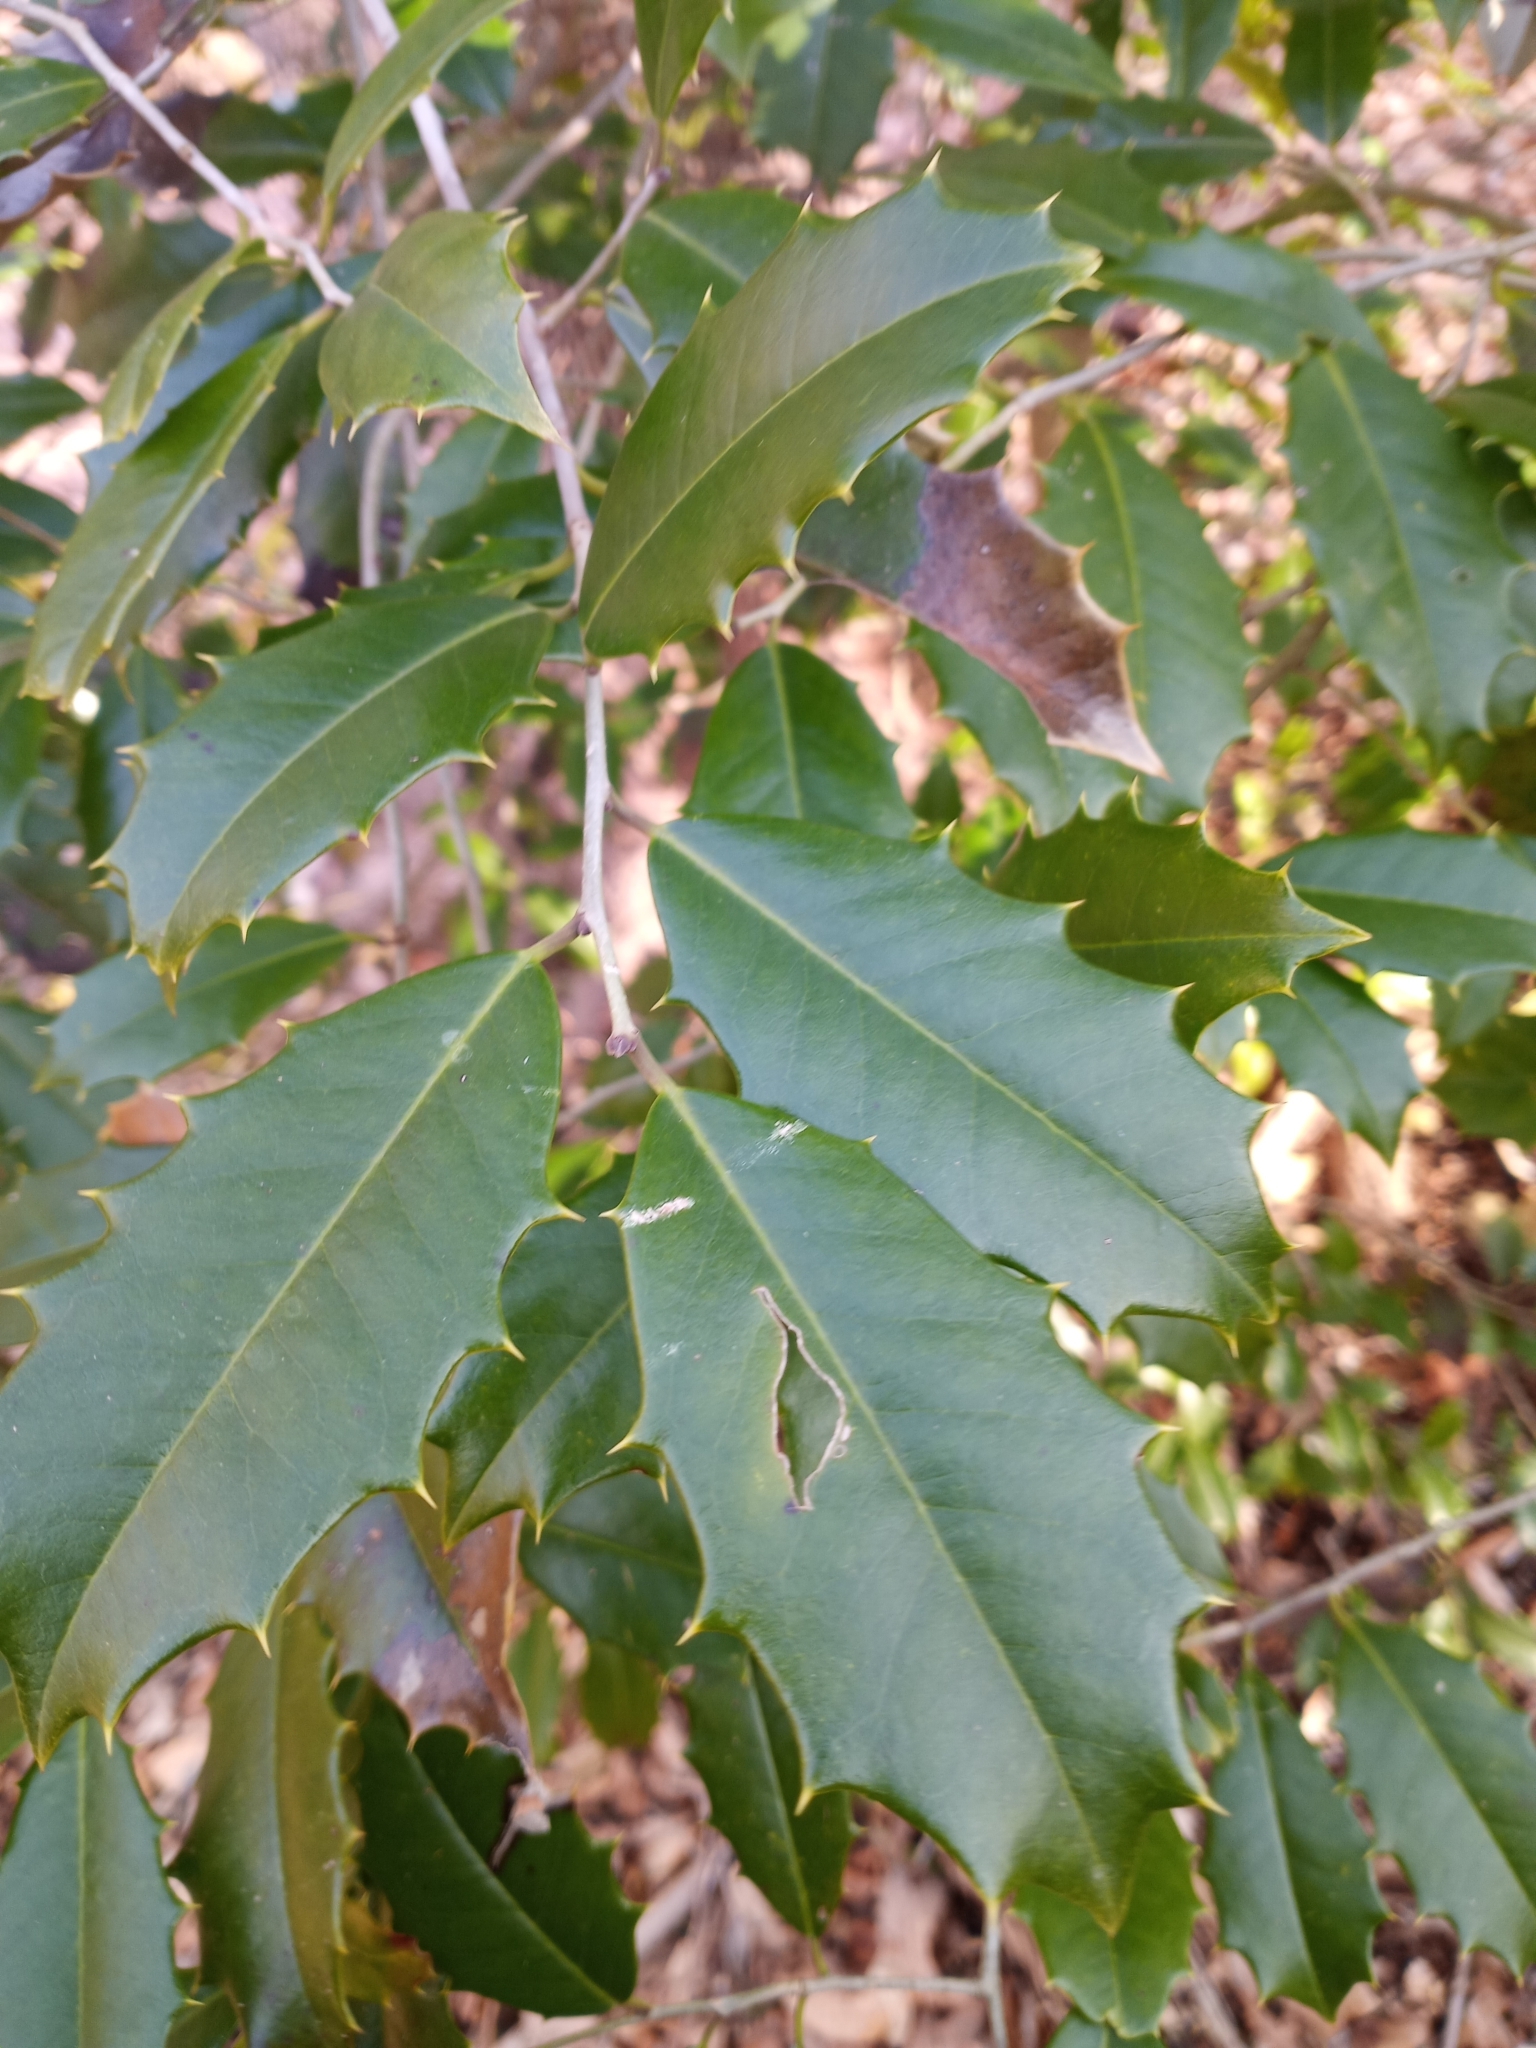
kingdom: Plantae
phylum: Tracheophyta
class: Magnoliopsida
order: Aquifoliales
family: Aquifoliaceae
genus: Ilex
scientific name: Ilex opaca
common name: American holly
